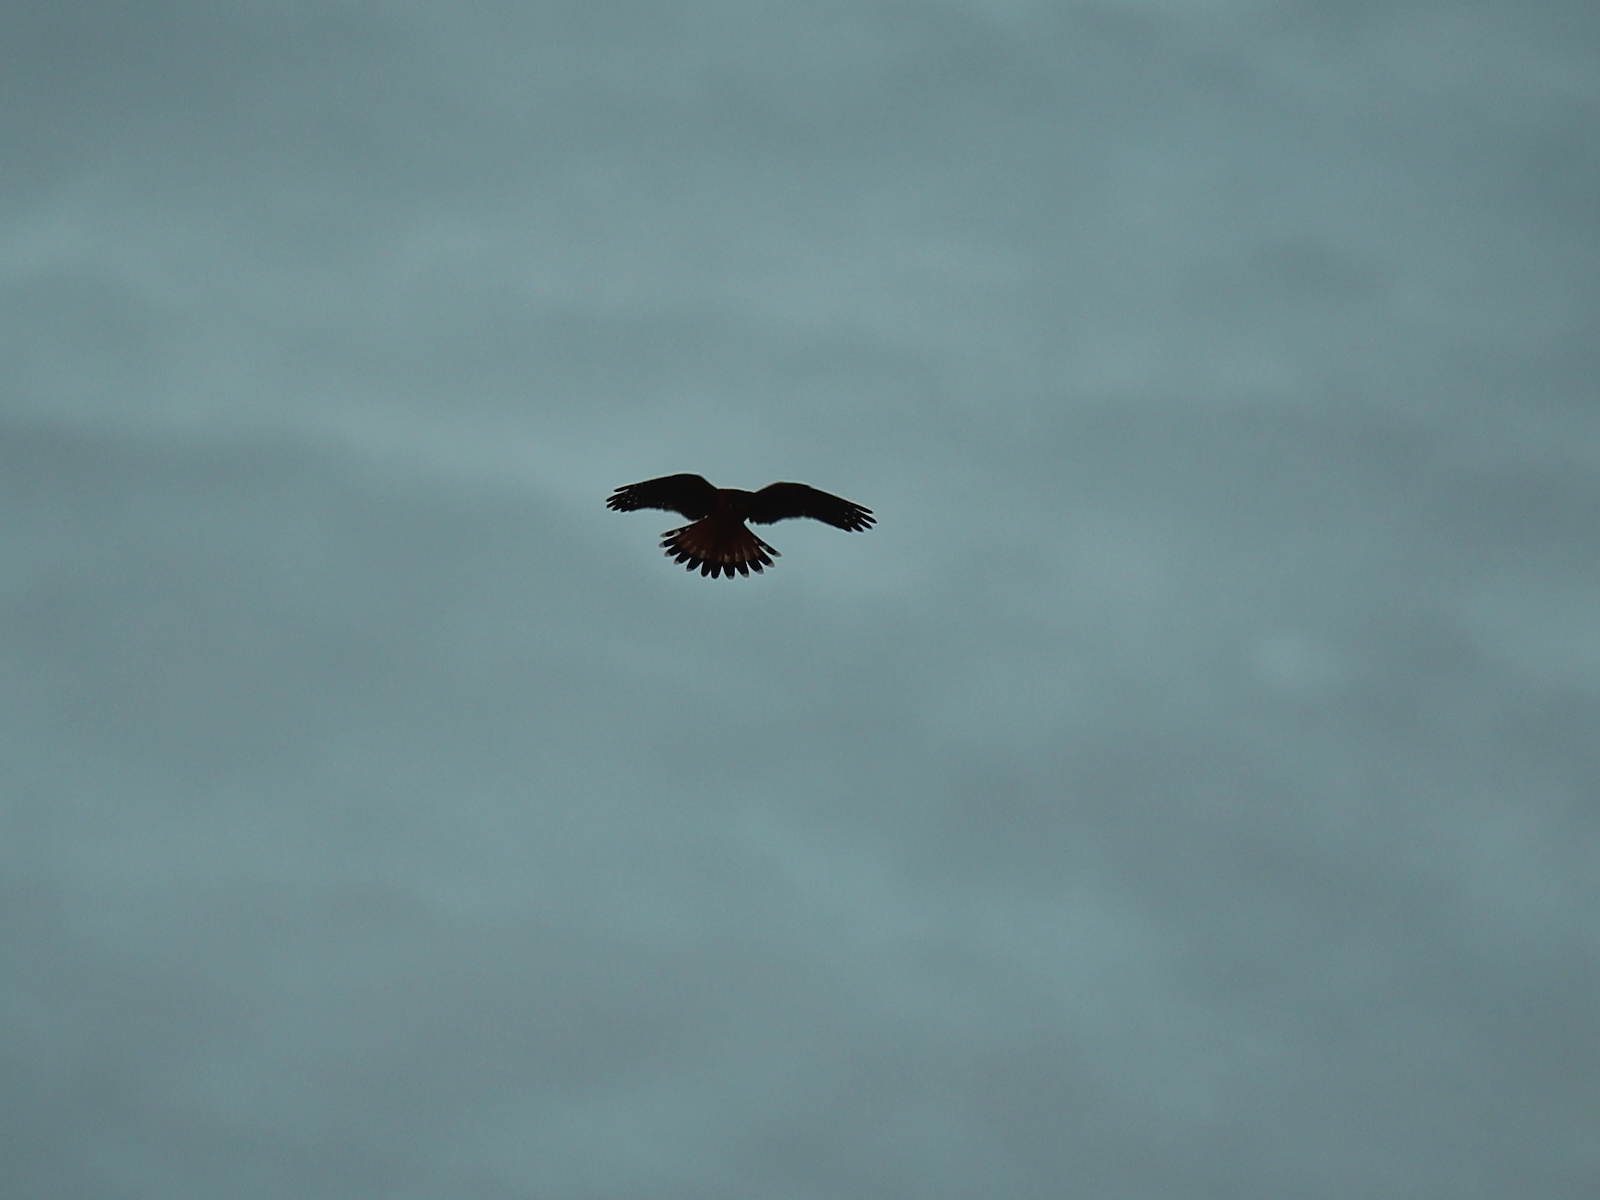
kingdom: Animalia
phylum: Chordata
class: Aves
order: Falconiformes
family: Falconidae
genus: Falco
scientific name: Falco sparverius
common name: American kestrel
